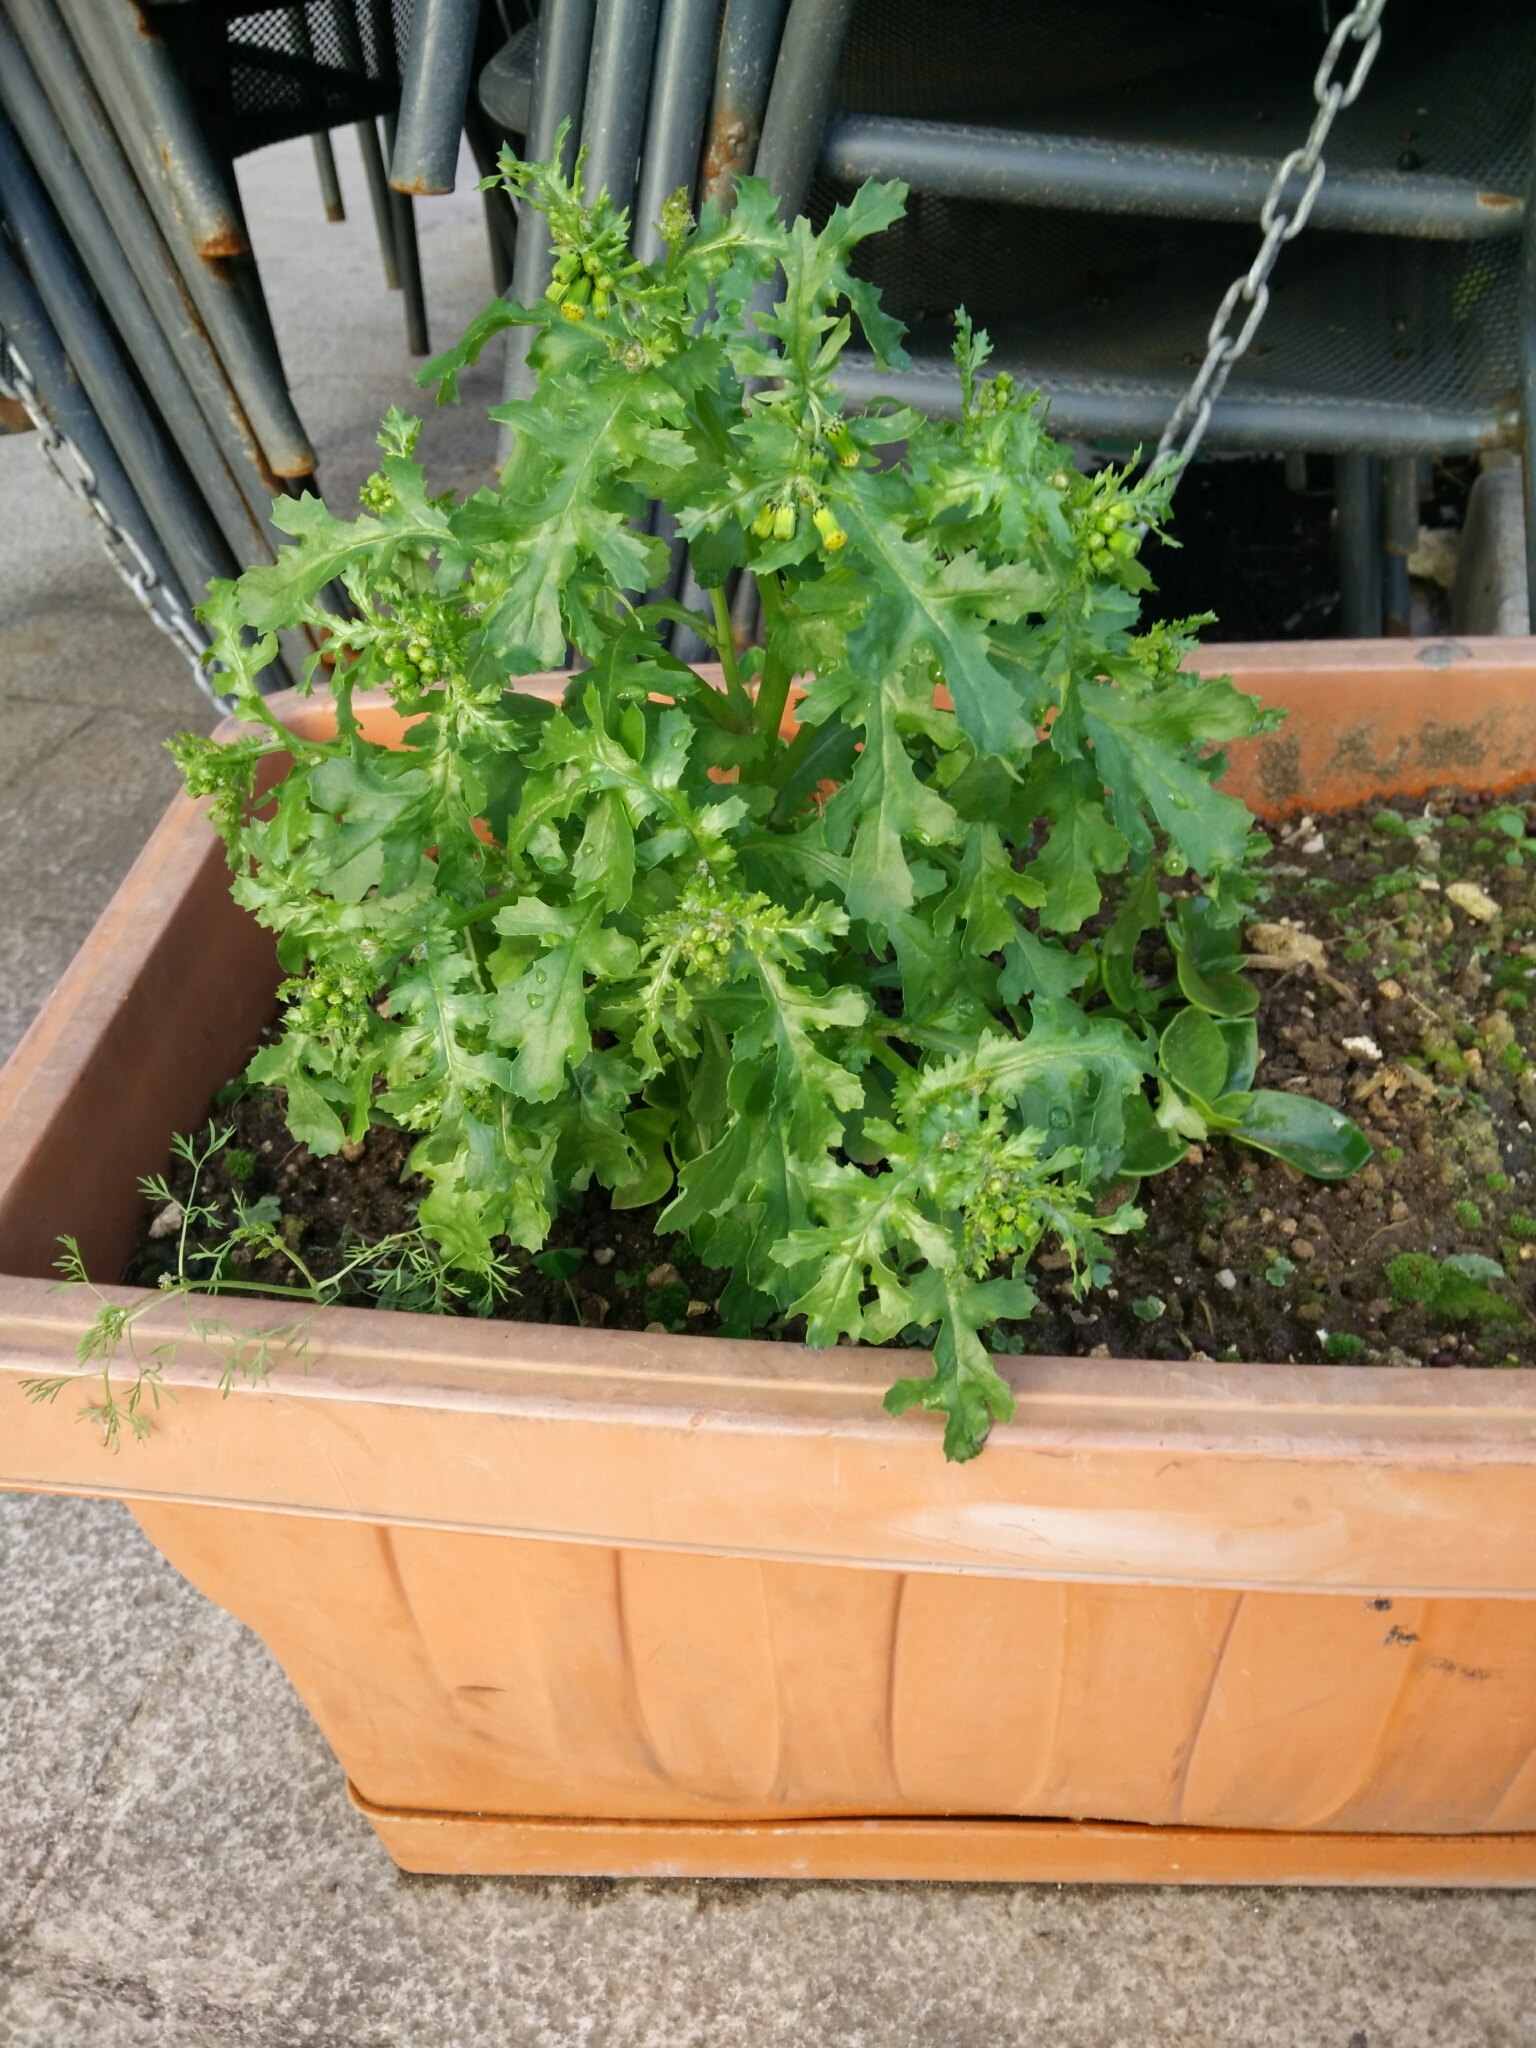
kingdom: Plantae
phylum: Tracheophyta
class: Magnoliopsida
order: Asterales
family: Asteraceae
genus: Senecio
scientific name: Senecio vulgaris
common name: Old-man-in-the-spring
